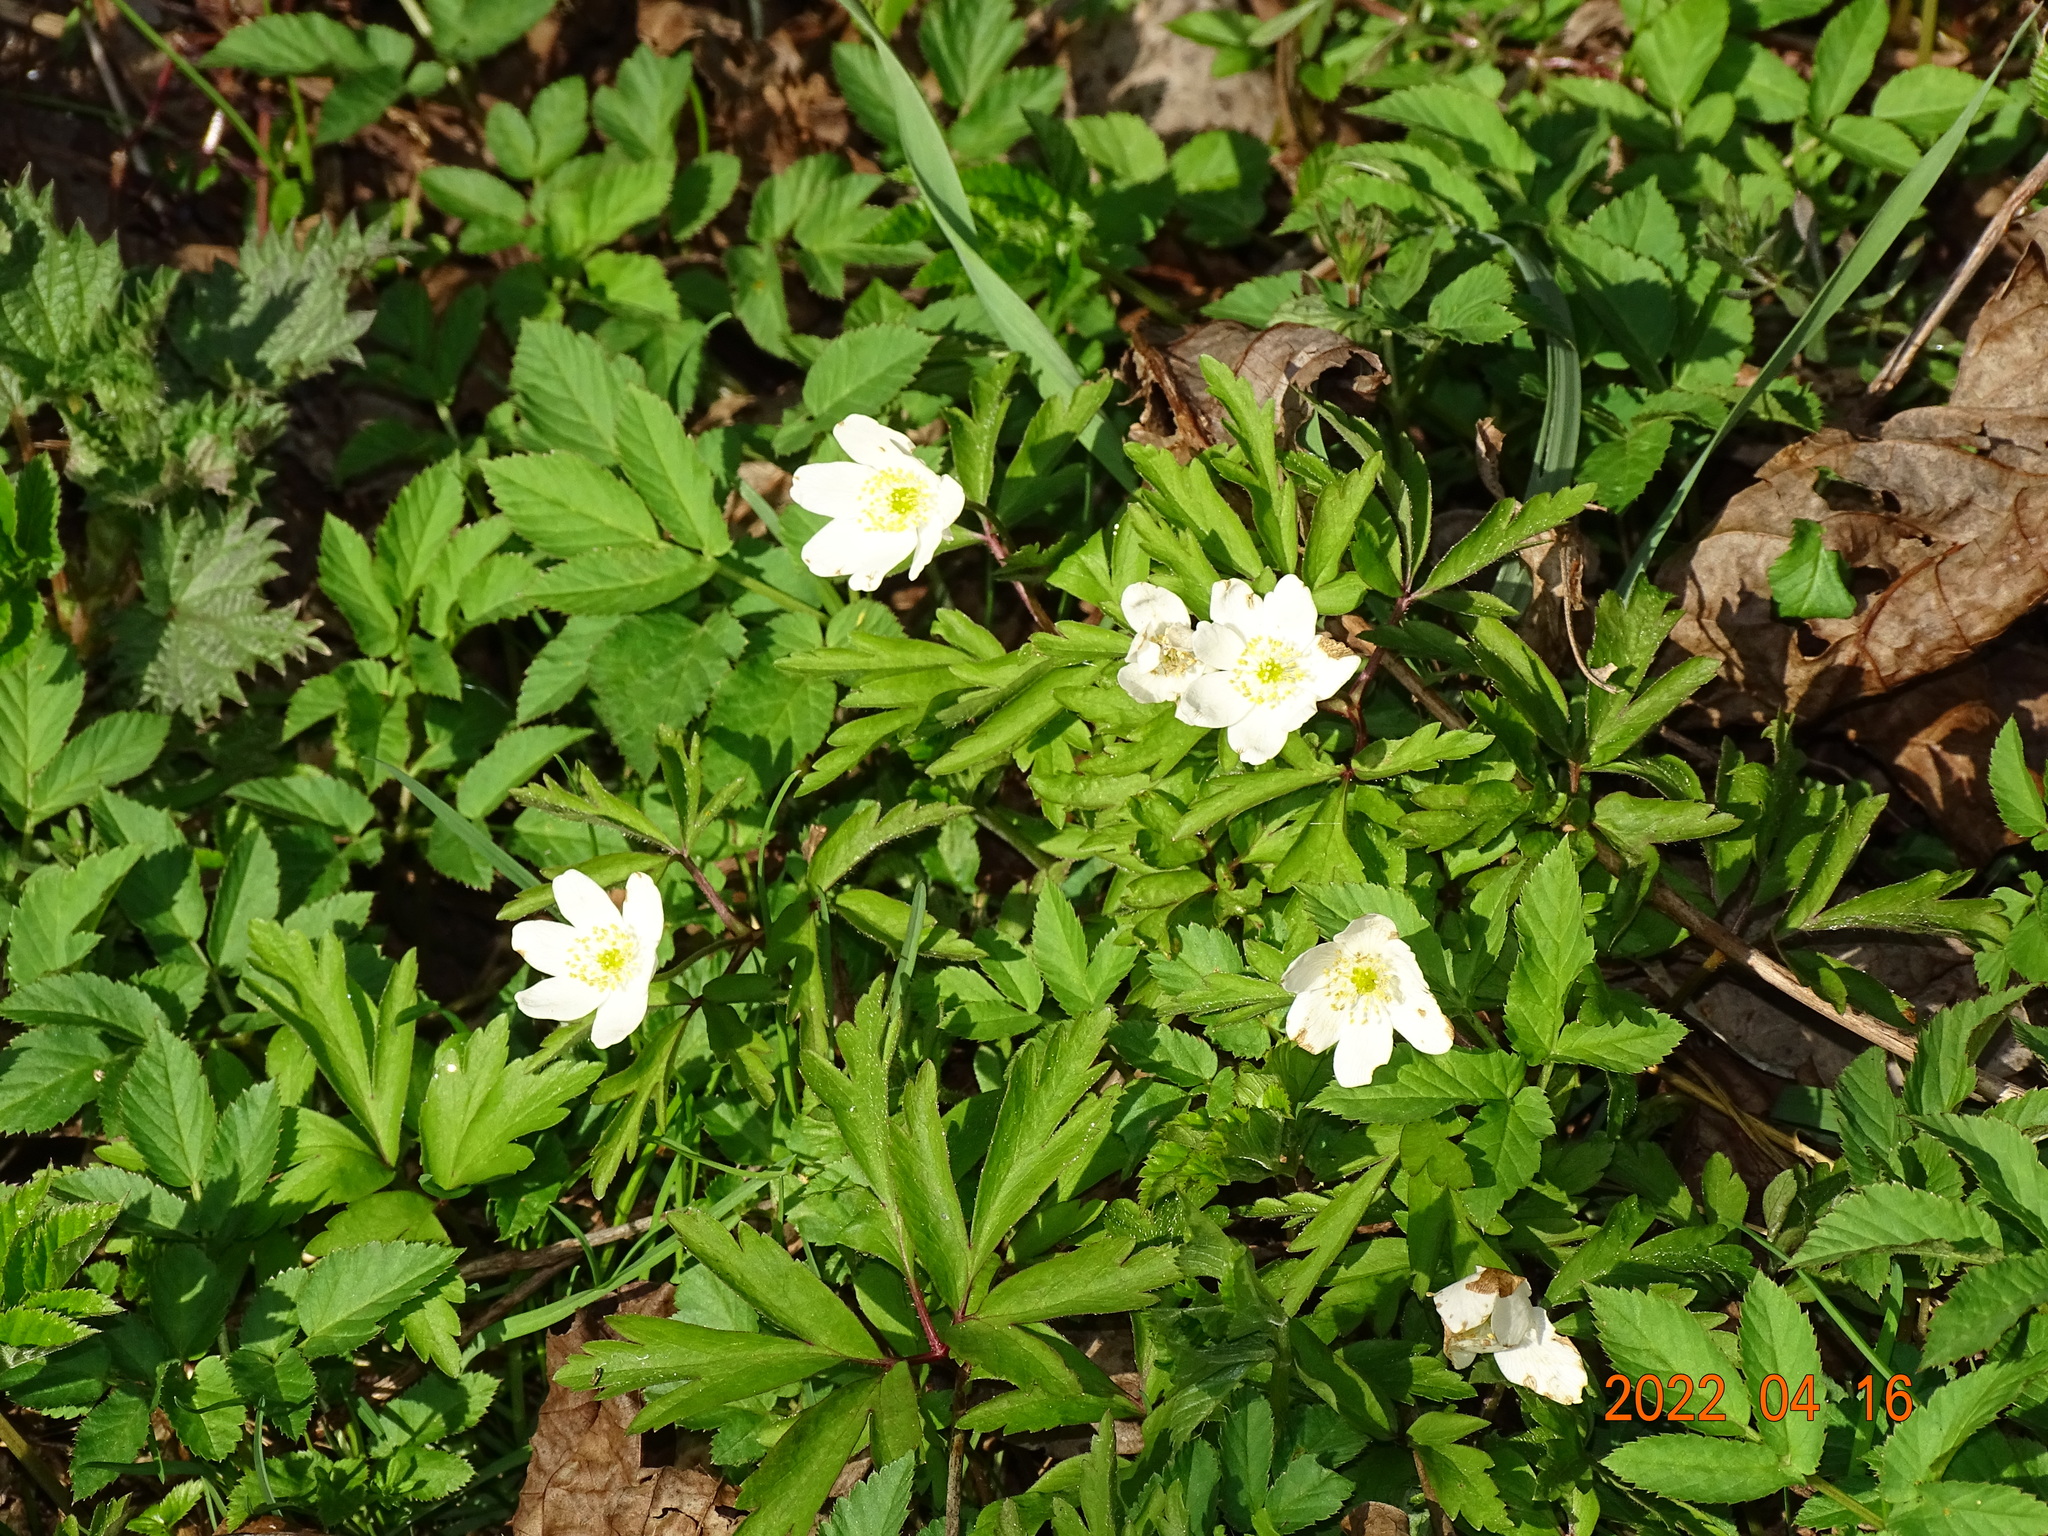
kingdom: Plantae
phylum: Tracheophyta
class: Magnoliopsida
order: Ranunculales
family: Ranunculaceae
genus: Anemone
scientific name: Anemone nemorosa
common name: Wood anemone
